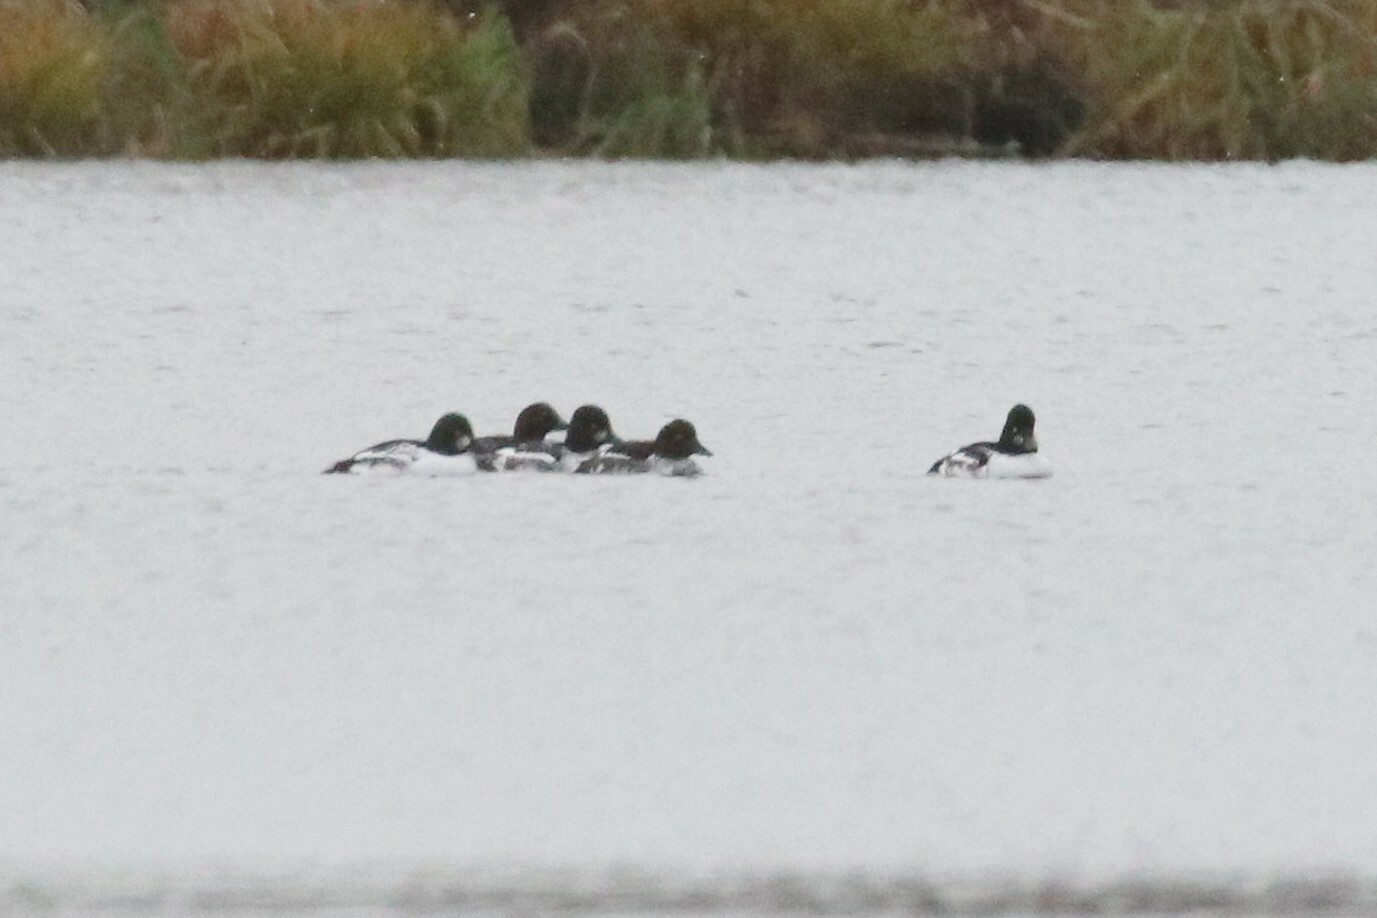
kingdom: Animalia
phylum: Chordata
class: Aves
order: Anseriformes
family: Anatidae
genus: Bucephala
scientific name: Bucephala clangula
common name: Common goldeneye
